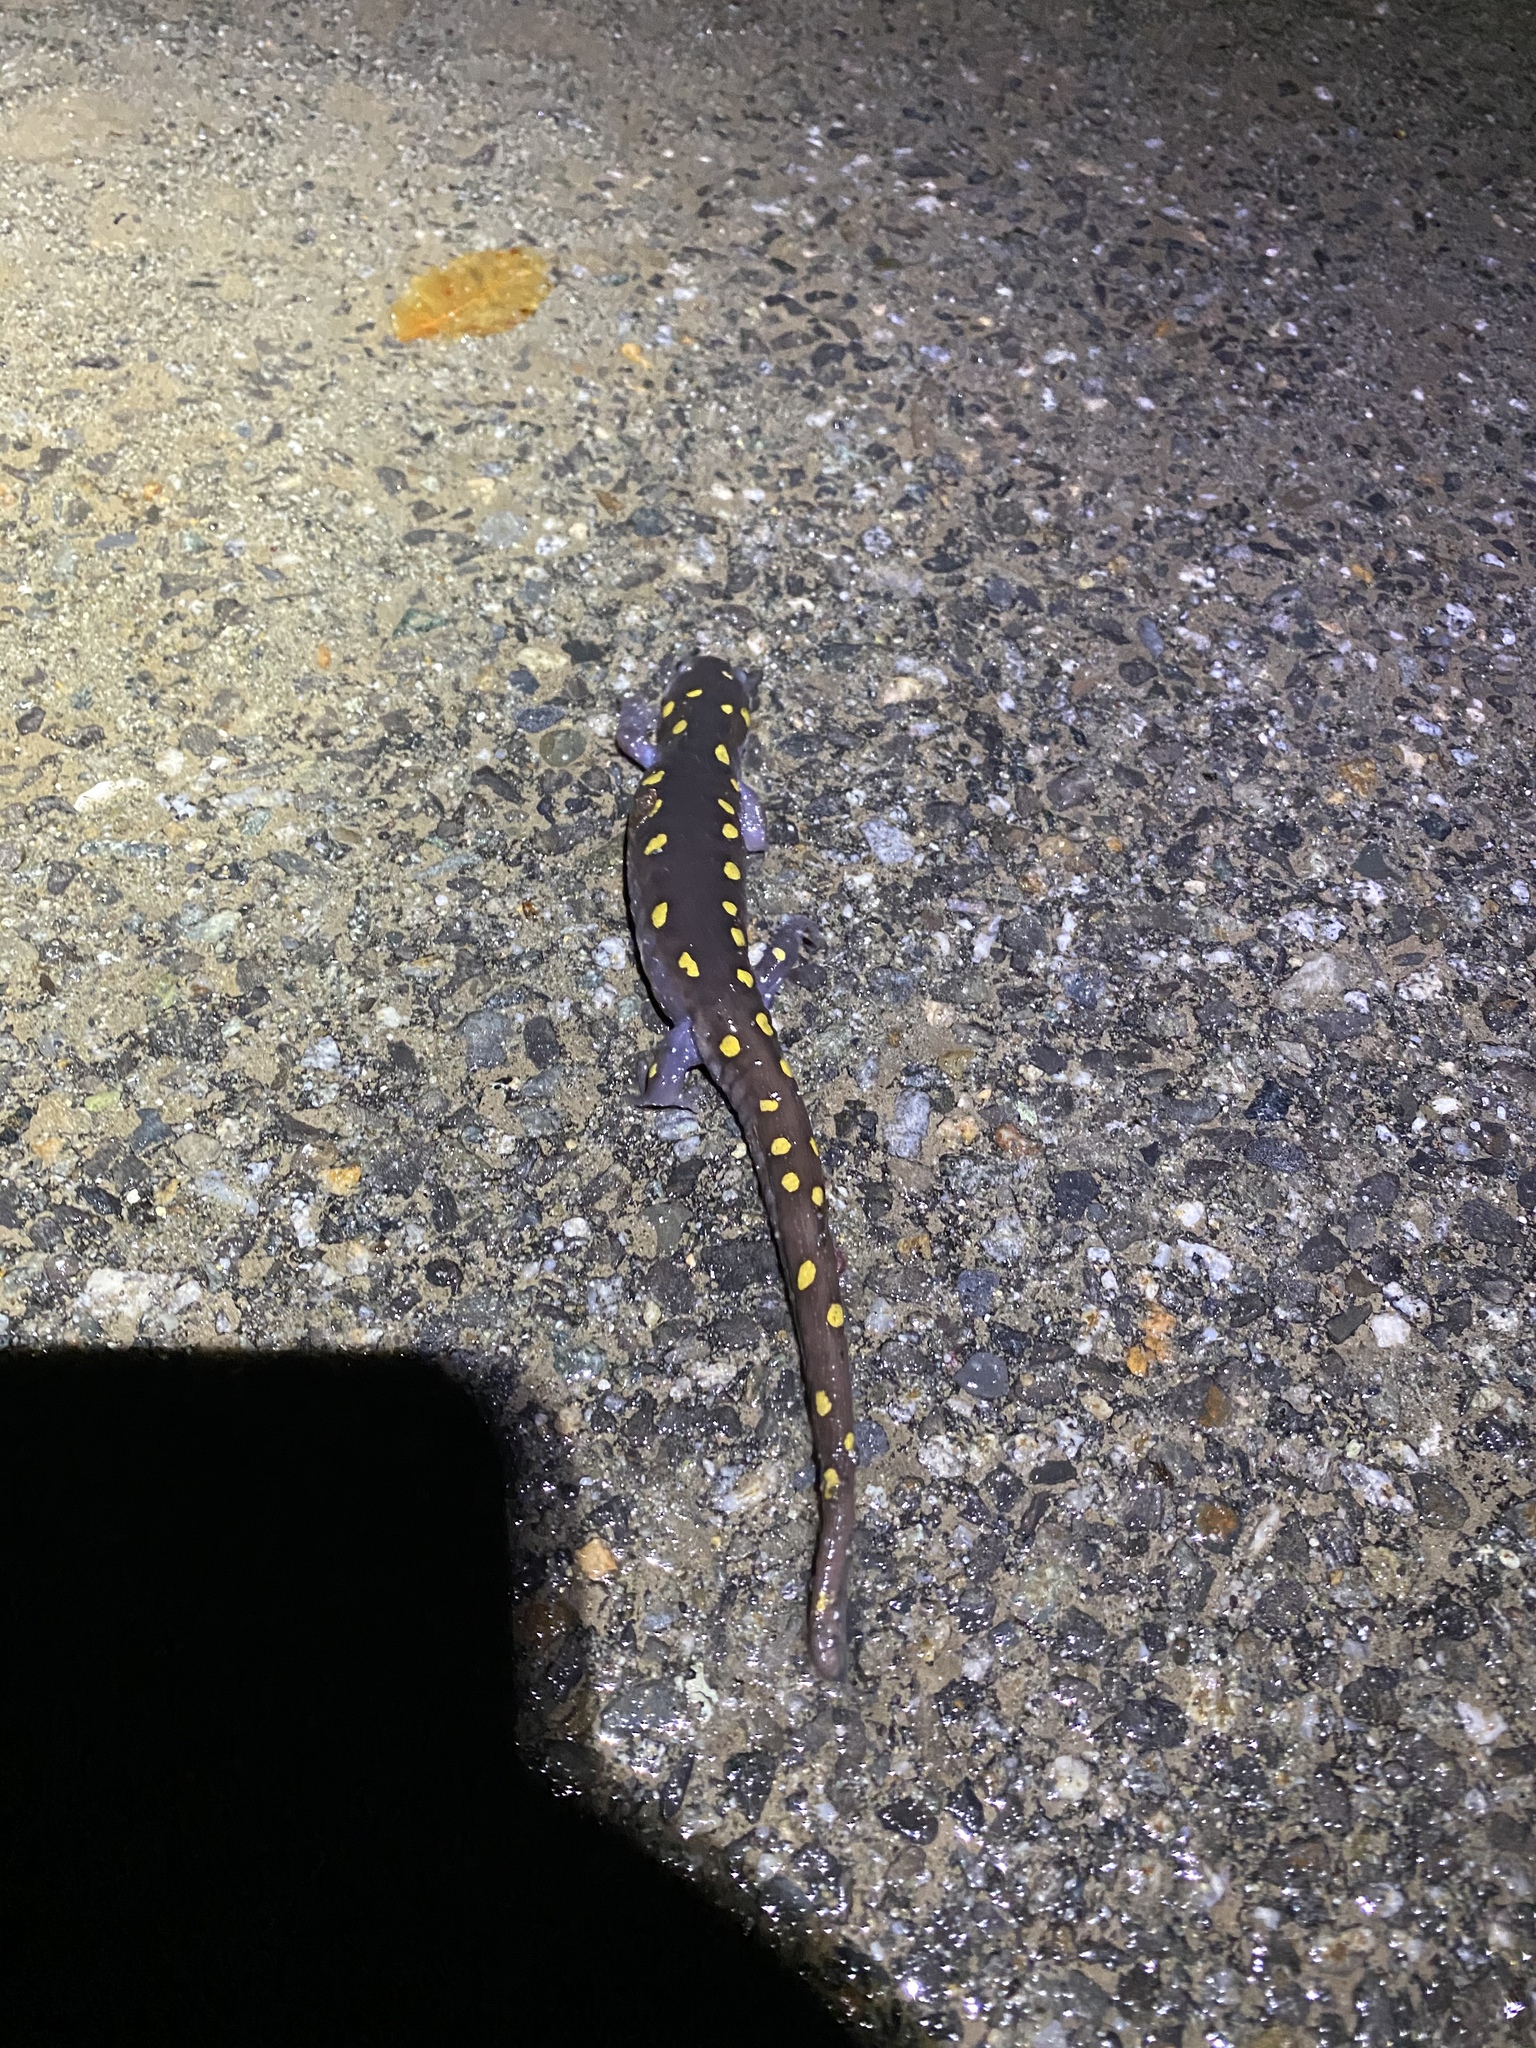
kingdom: Animalia
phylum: Chordata
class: Amphibia
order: Caudata
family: Ambystomatidae
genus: Ambystoma
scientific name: Ambystoma maculatum
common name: Spotted salamander
